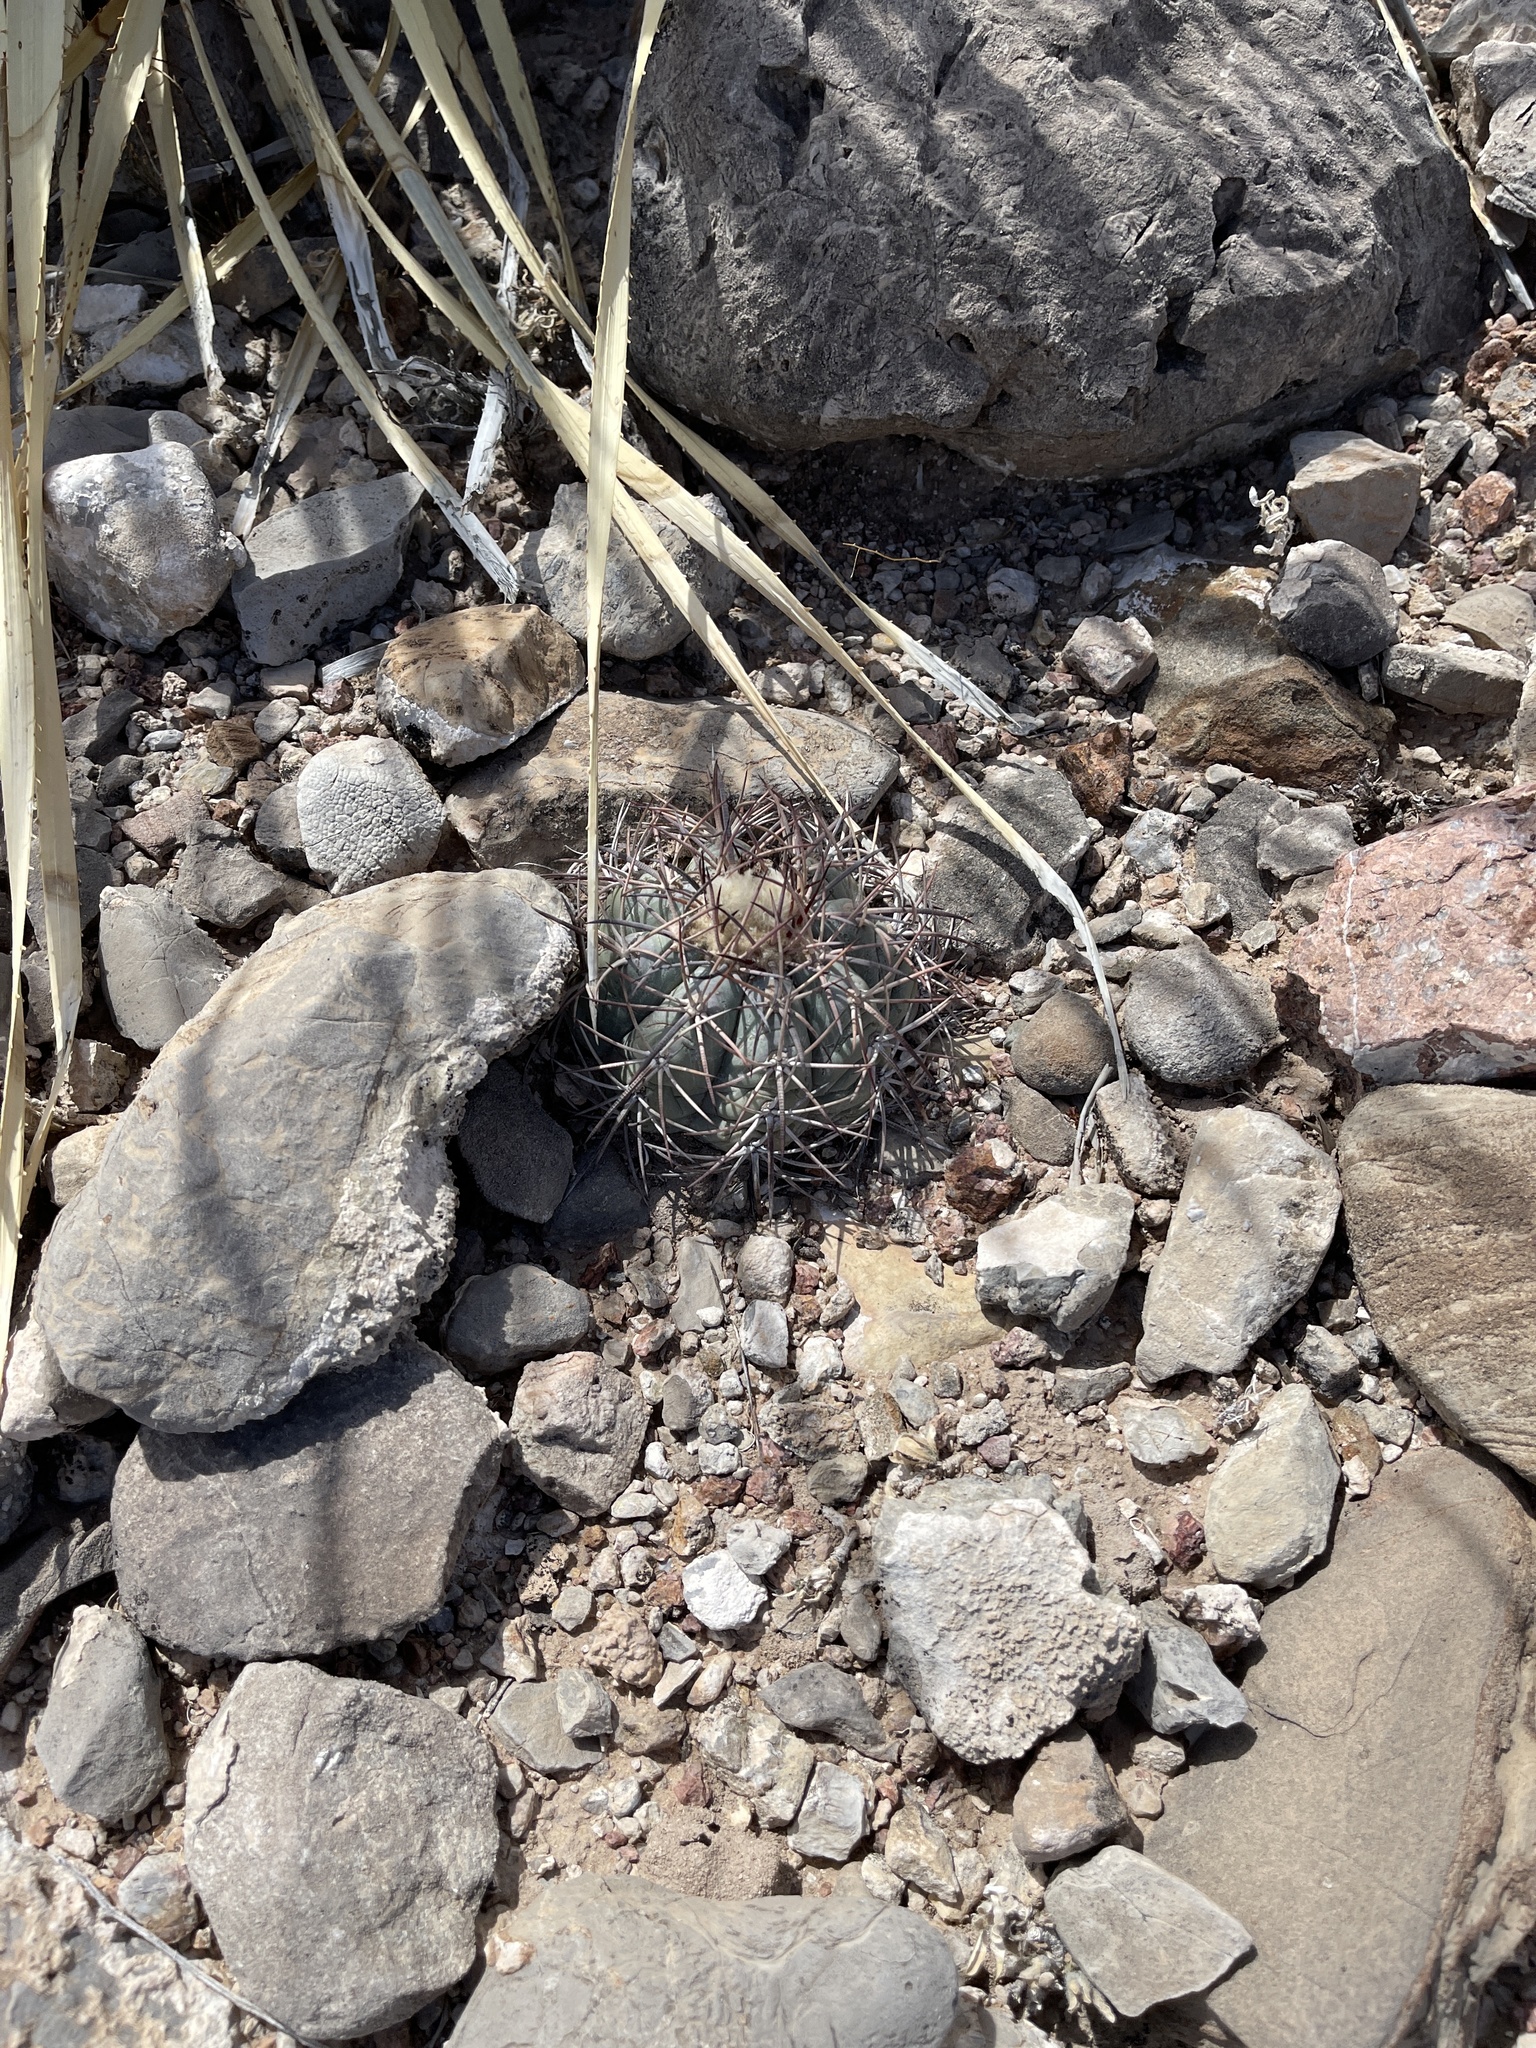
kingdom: Plantae
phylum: Tracheophyta
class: Magnoliopsida
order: Caryophyllales
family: Cactaceae
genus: Echinocactus
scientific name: Echinocactus horizonthalonius
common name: Devilshead
